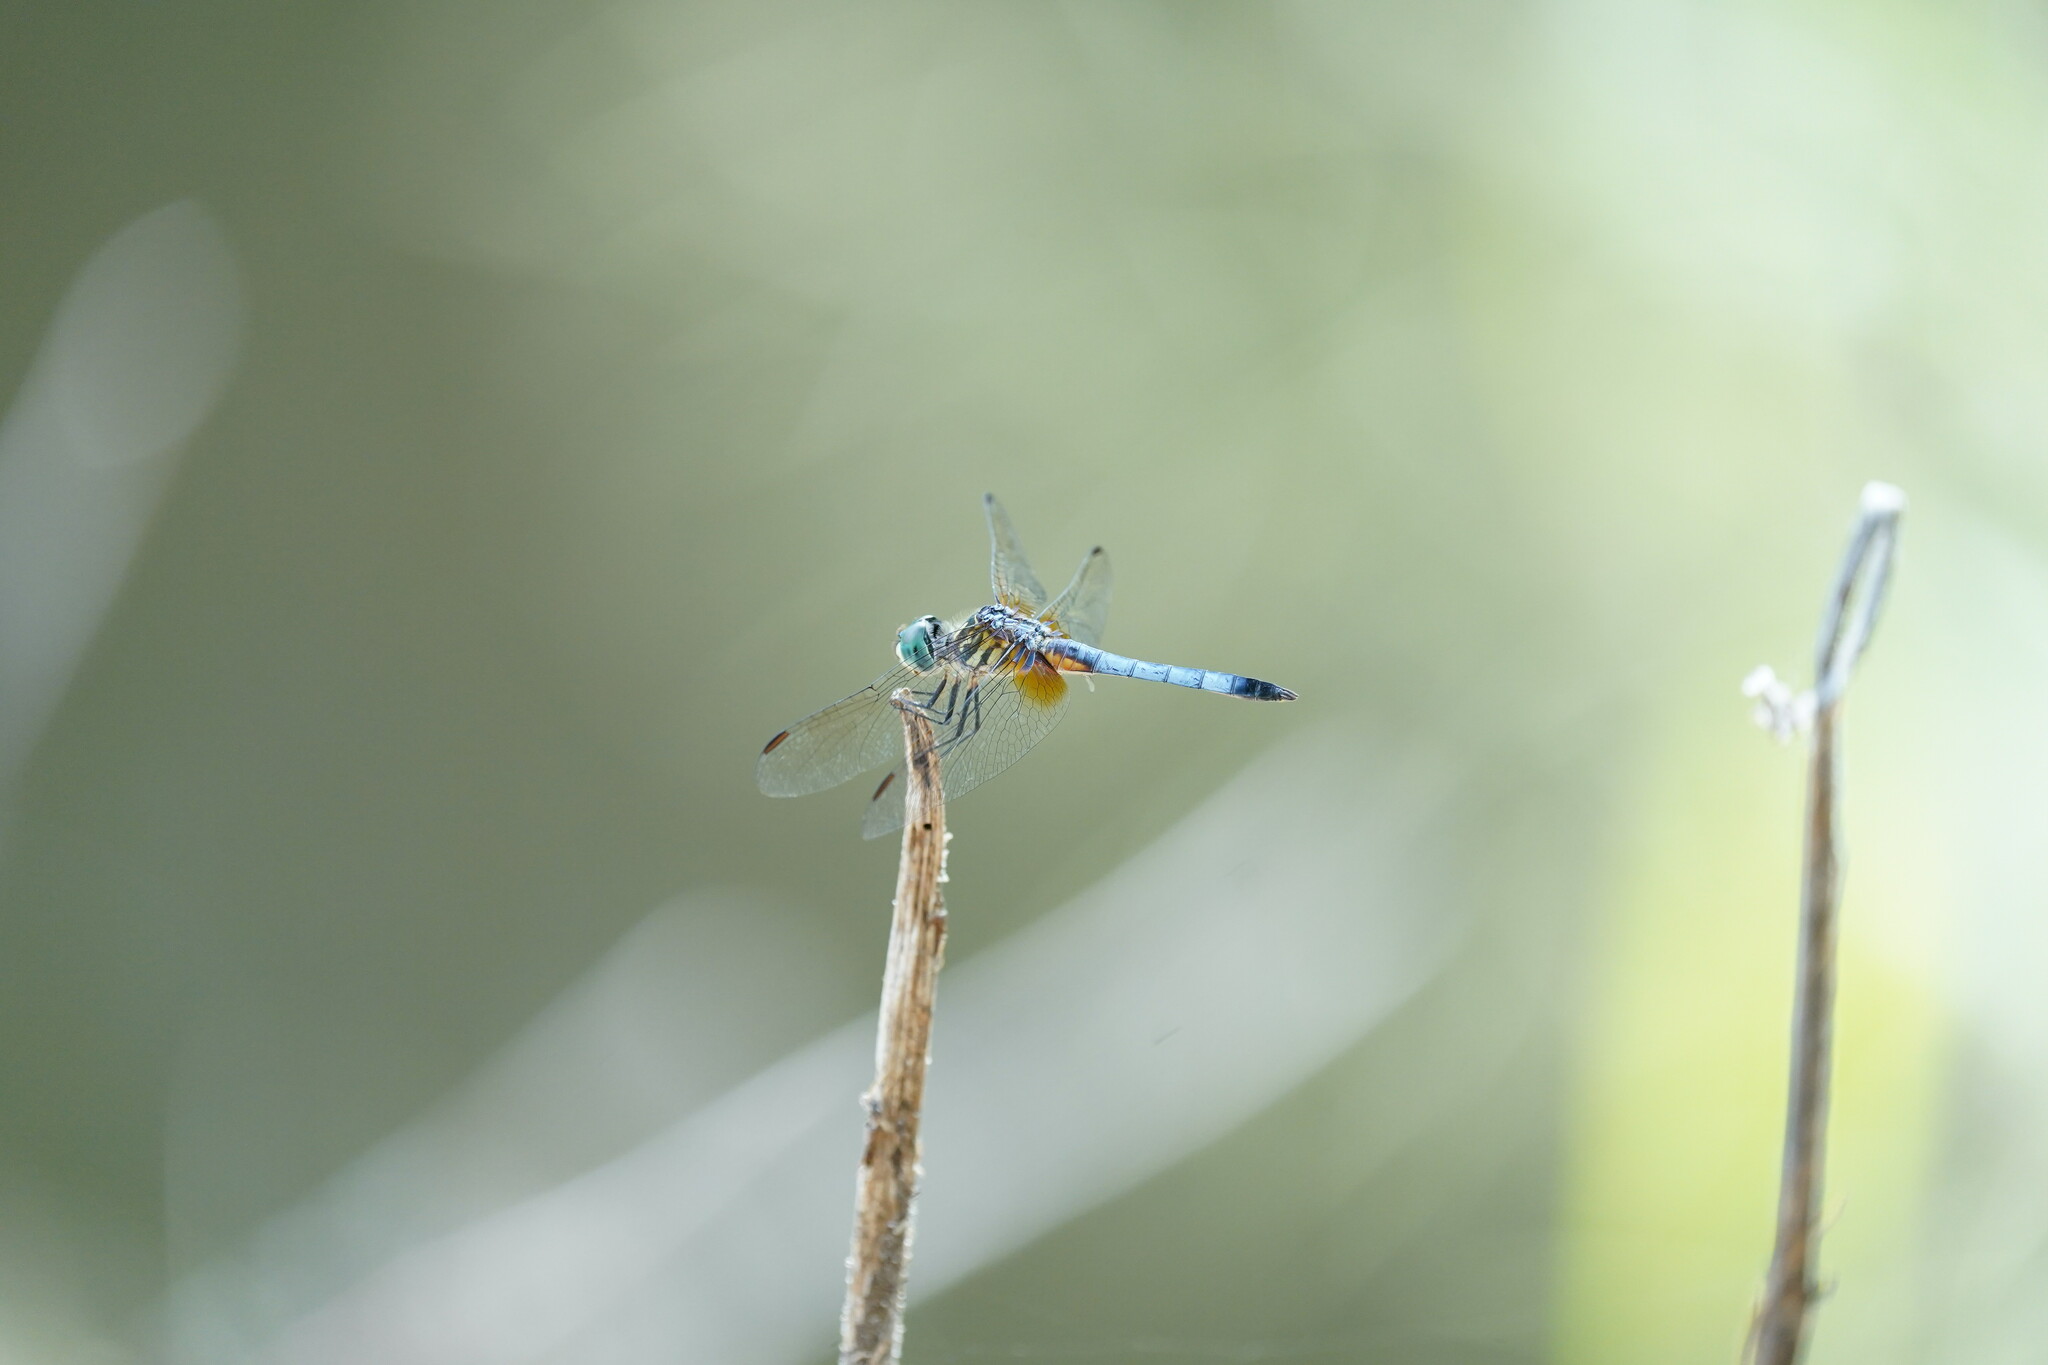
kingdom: Animalia
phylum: Arthropoda
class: Insecta
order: Odonata
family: Libellulidae
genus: Pachydiplax
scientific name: Pachydiplax longipennis
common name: Blue dasher
